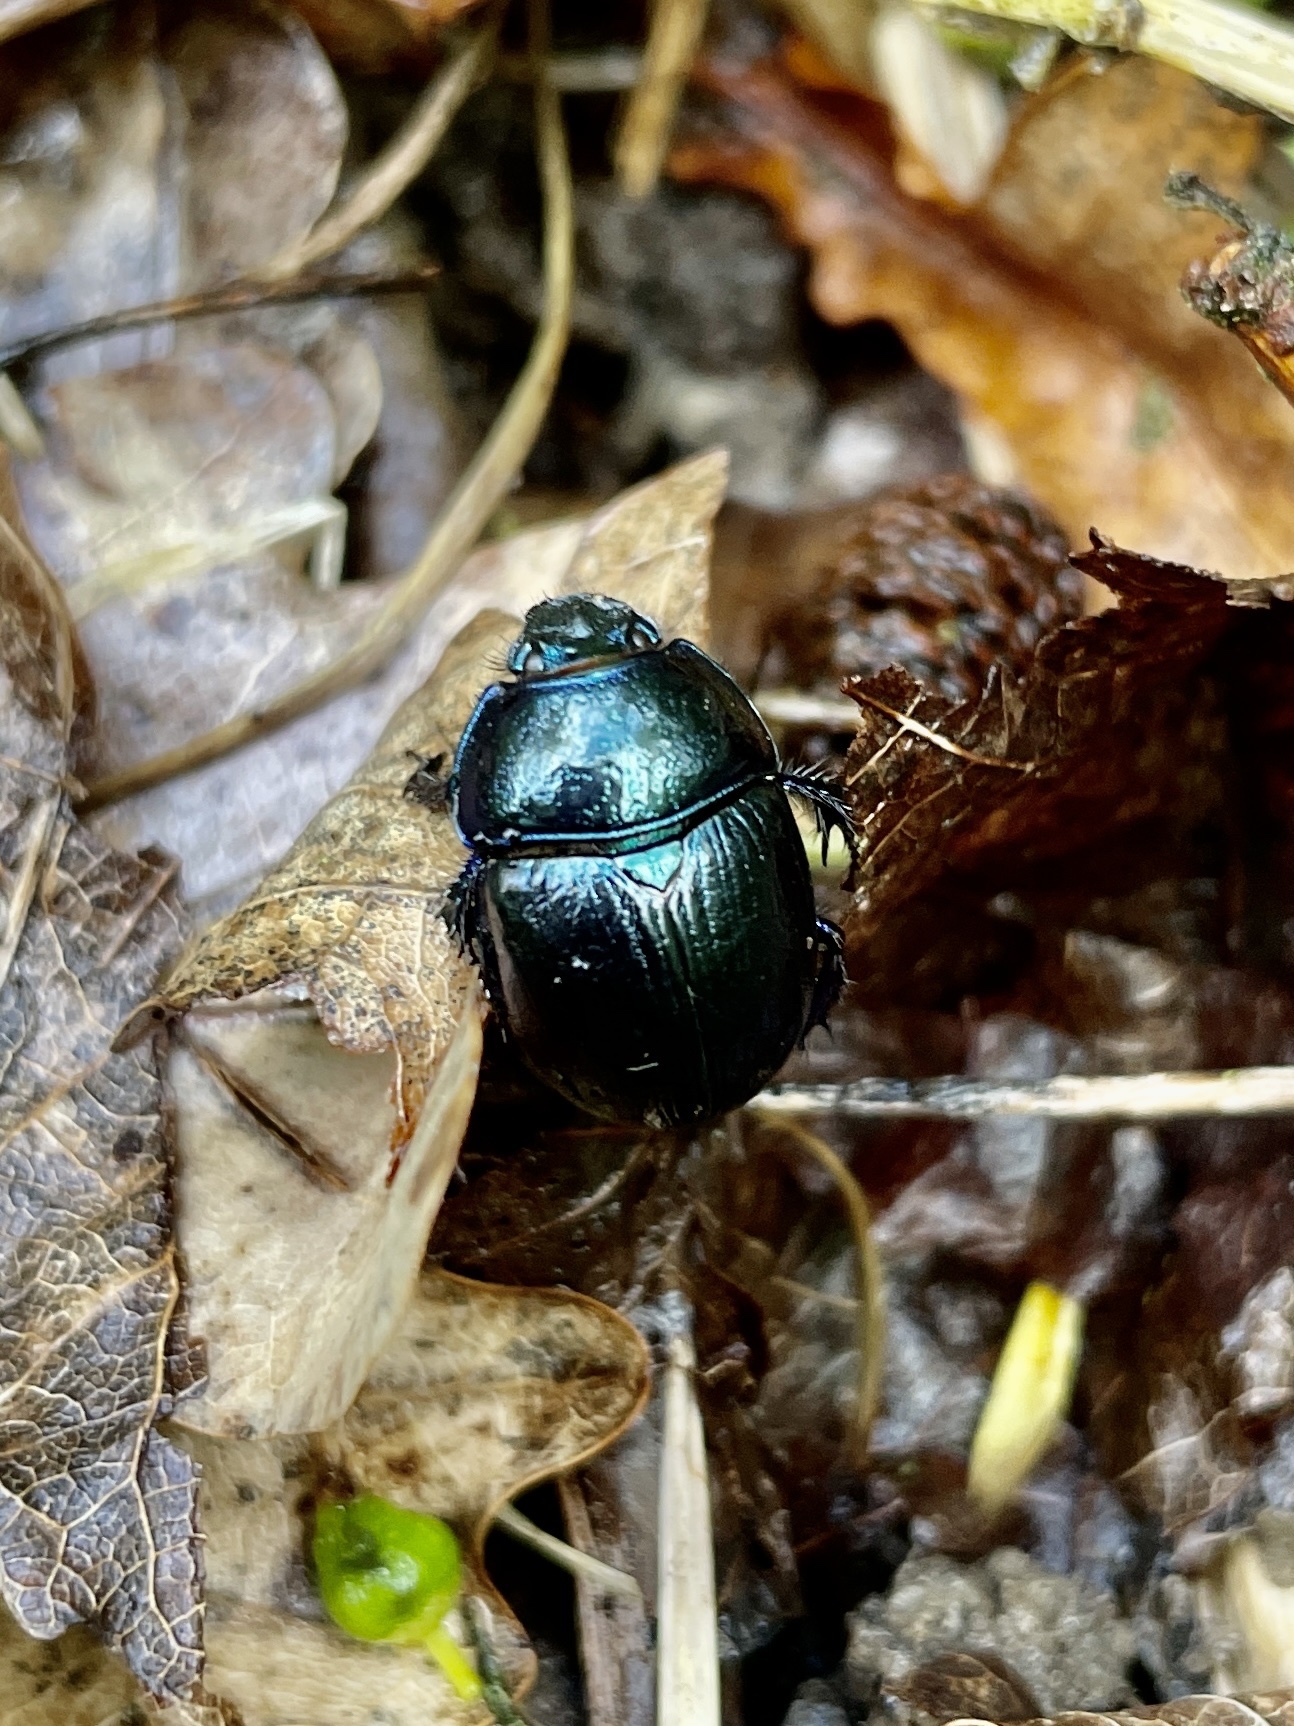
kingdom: Animalia
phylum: Arthropoda
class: Insecta
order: Coleoptera
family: Geotrupidae
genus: Anoplotrupes
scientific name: Anoplotrupes stercorosus
